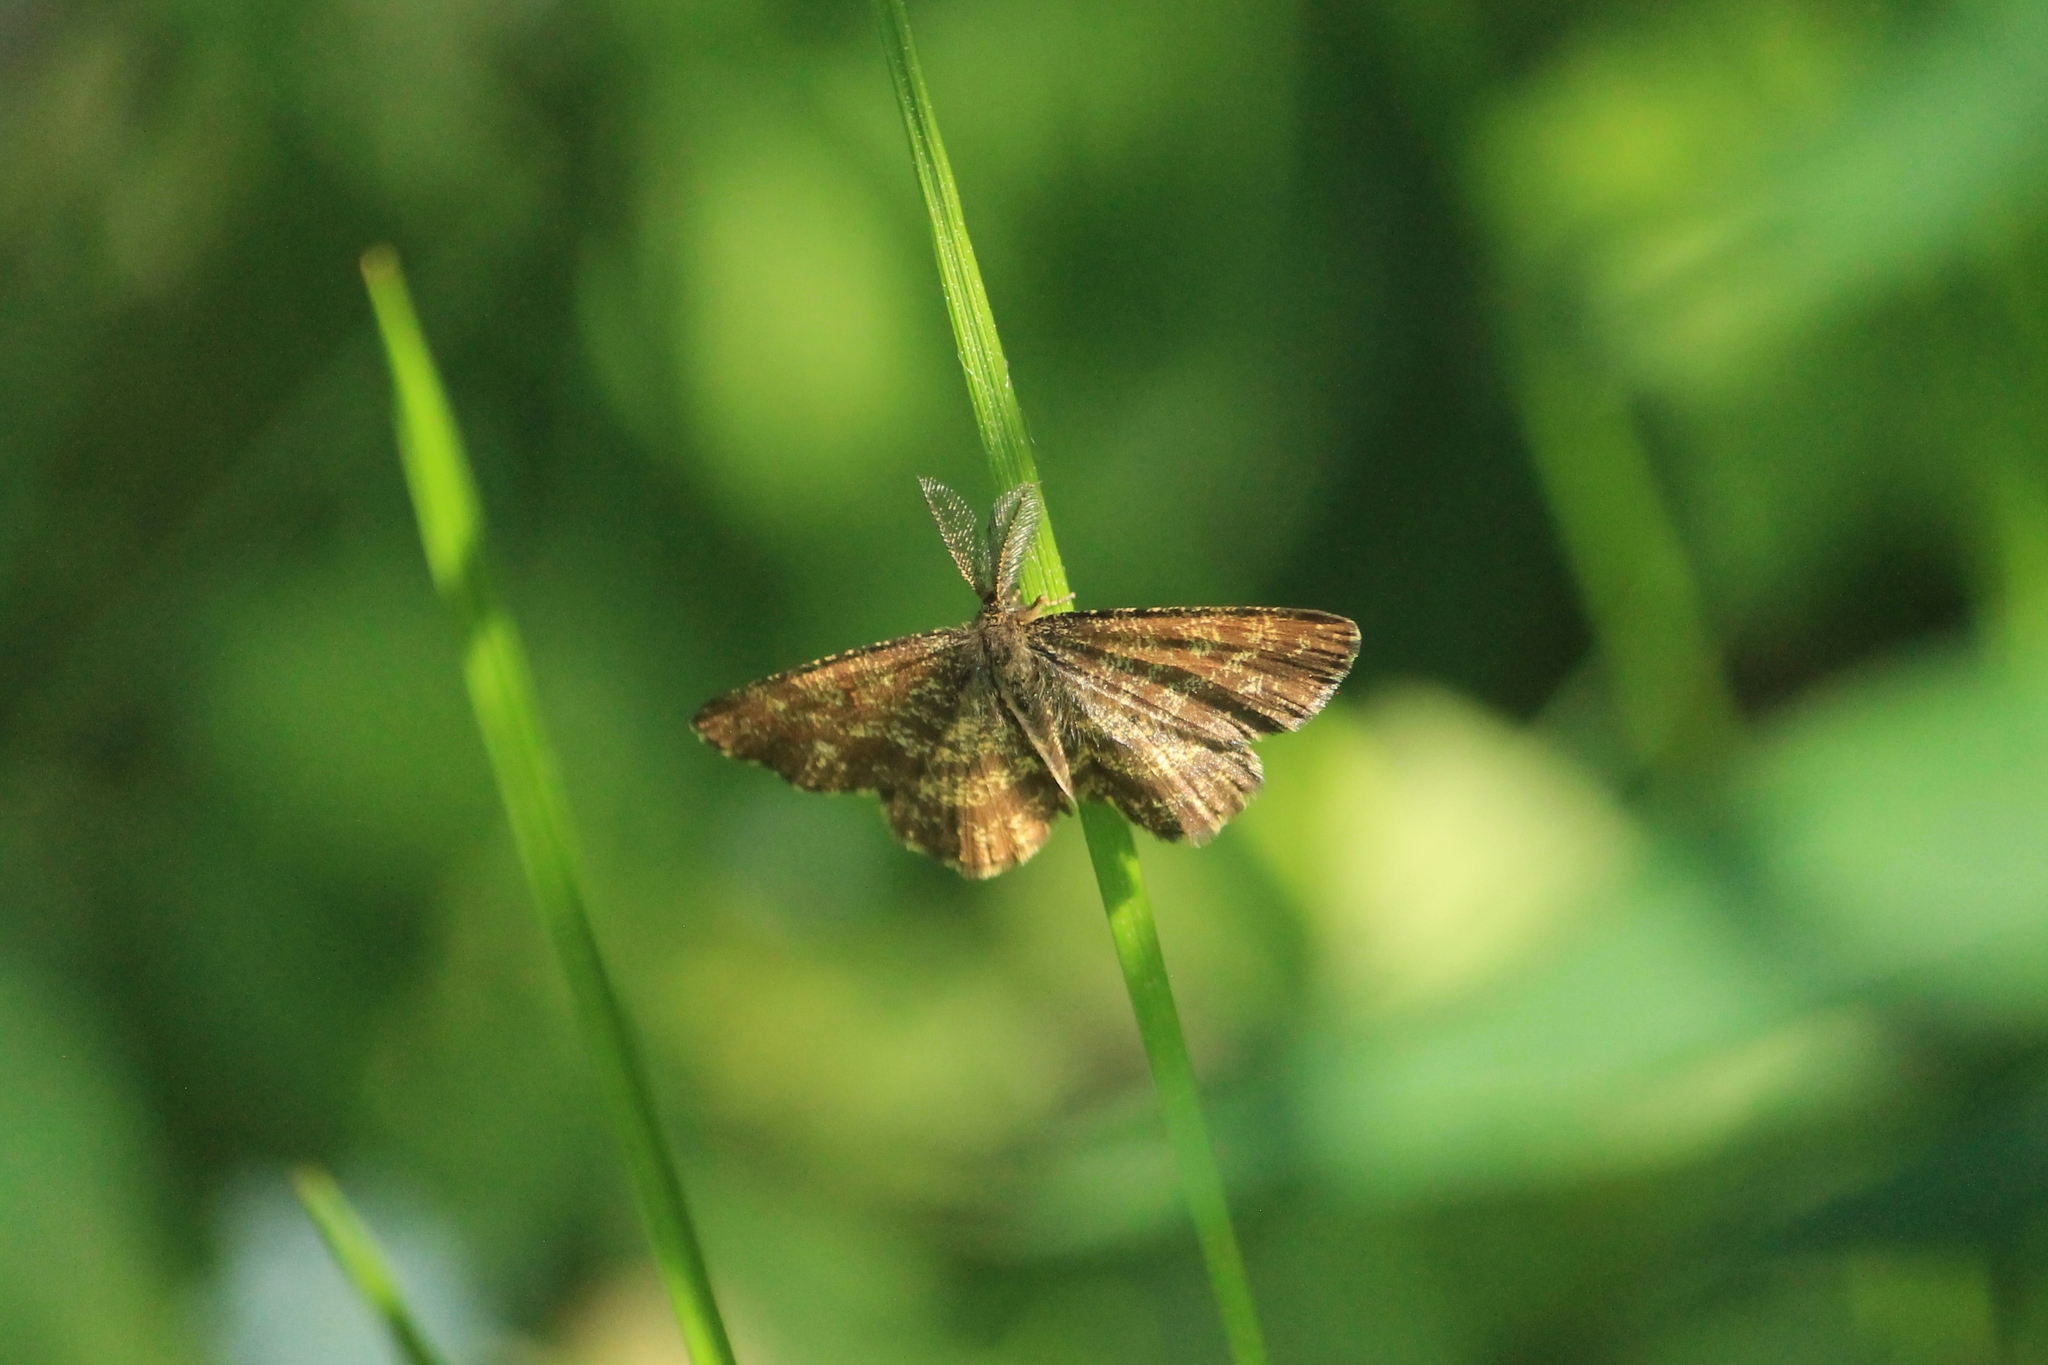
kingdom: Animalia
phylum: Arthropoda
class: Insecta
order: Lepidoptera
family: Geometridae
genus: Ematurga
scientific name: Ematurga atomaria
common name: Common heath
